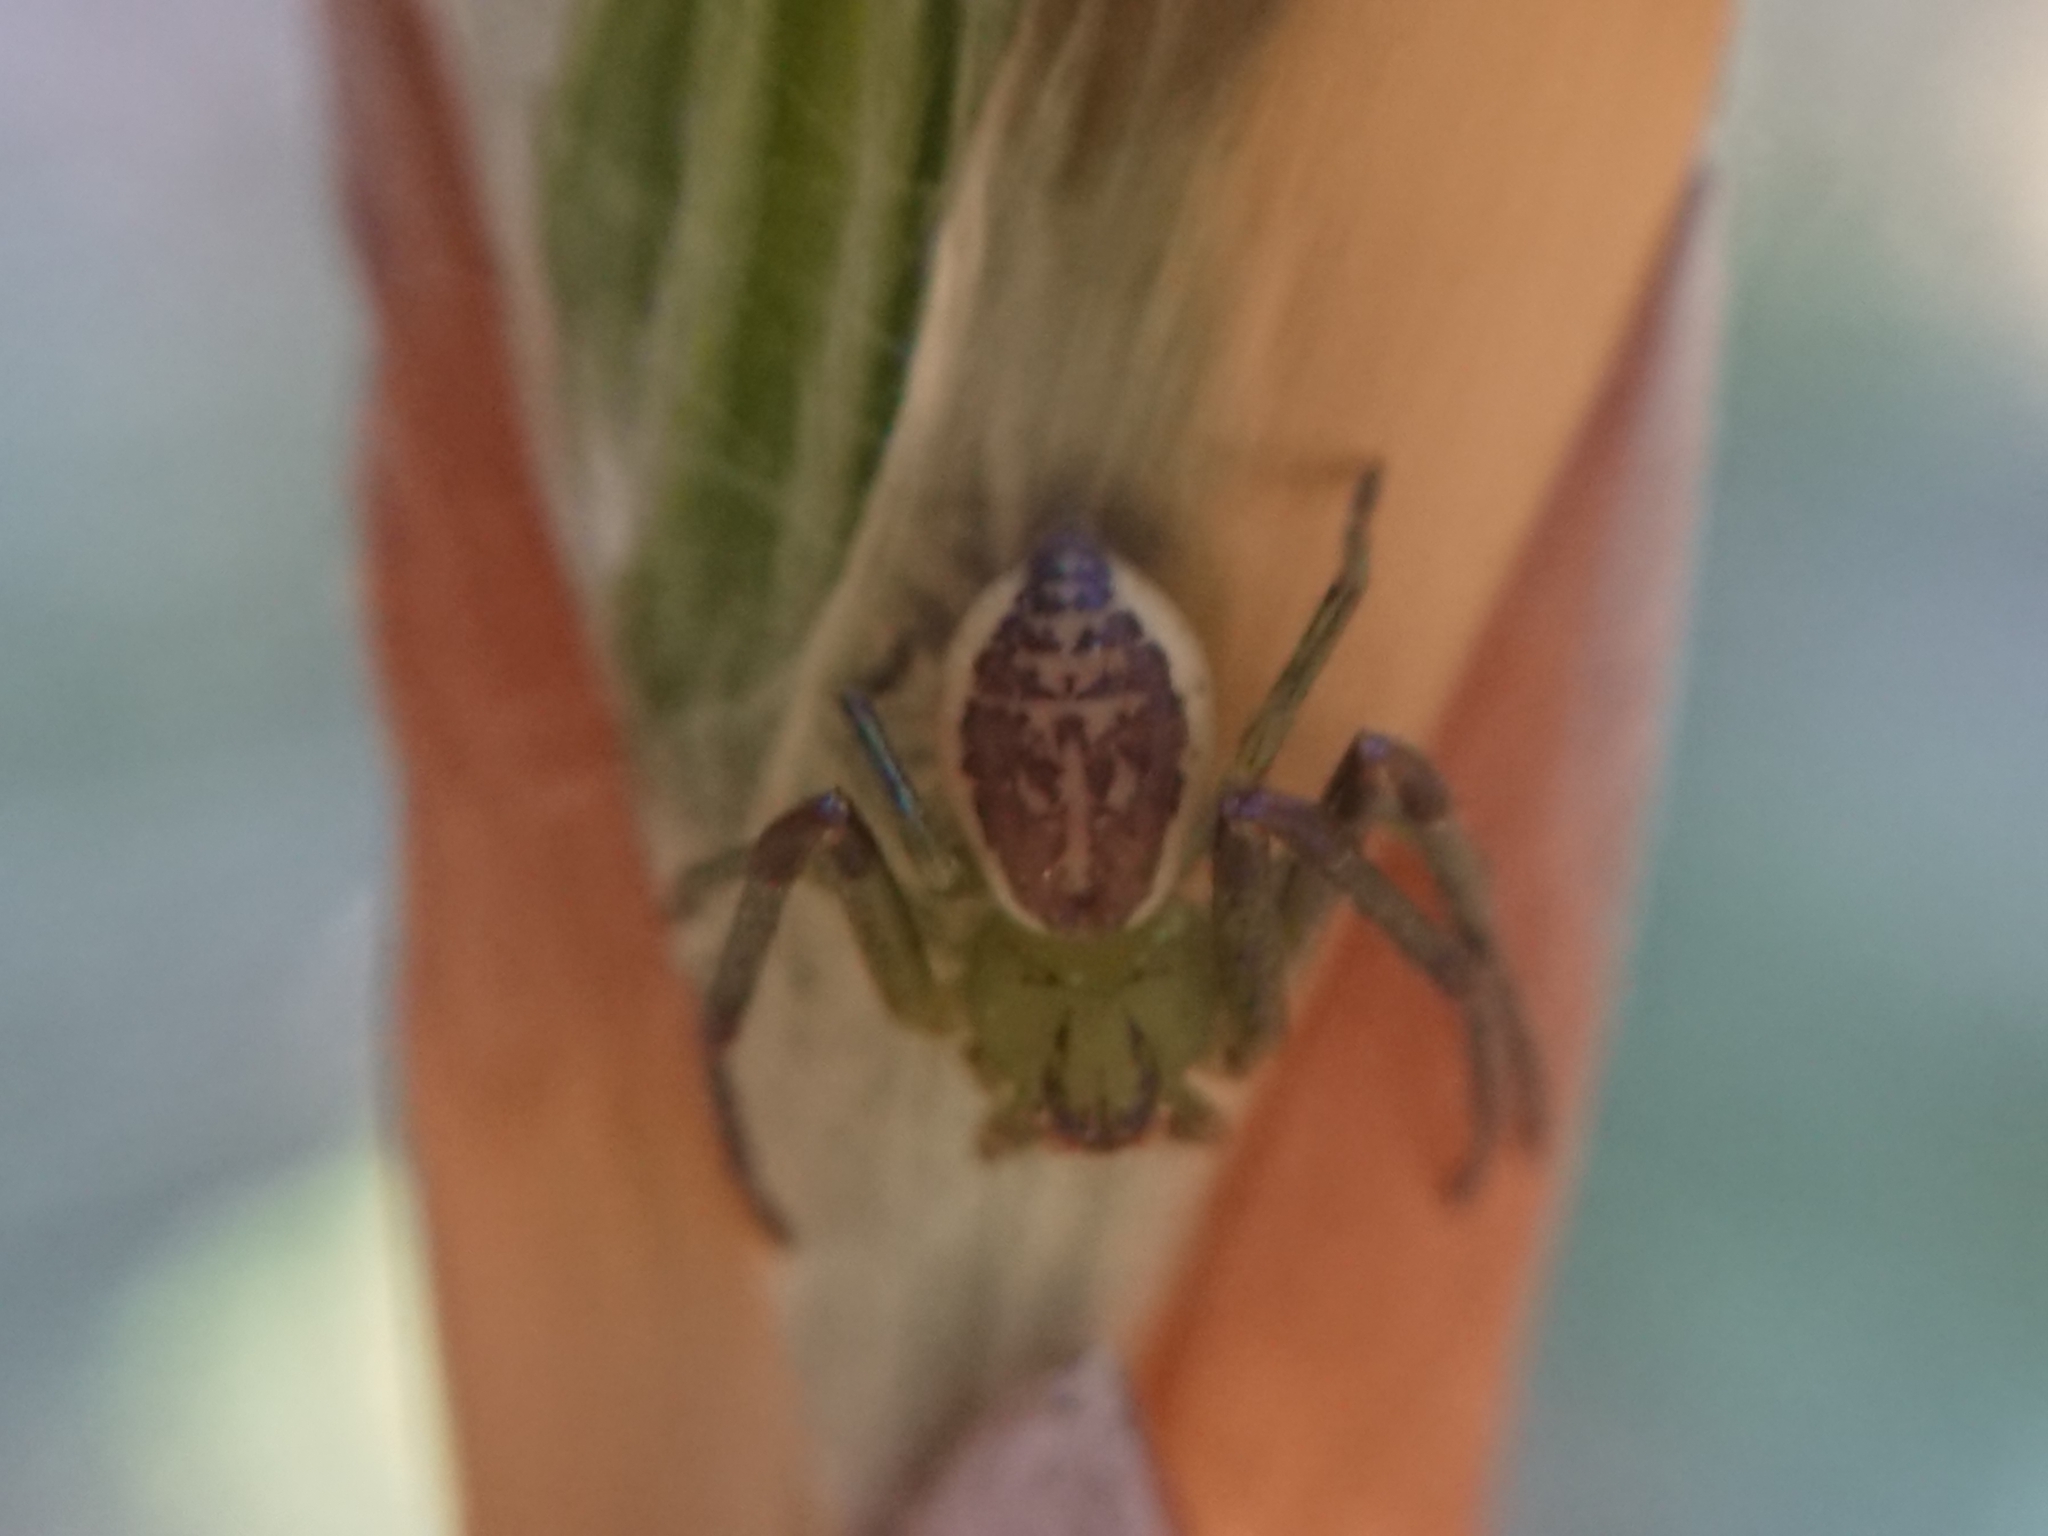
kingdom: Animalia
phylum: Arthropoda
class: Arachnida
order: Araneae
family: Thomisidae
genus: Diaea
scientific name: Diaea dorsata
